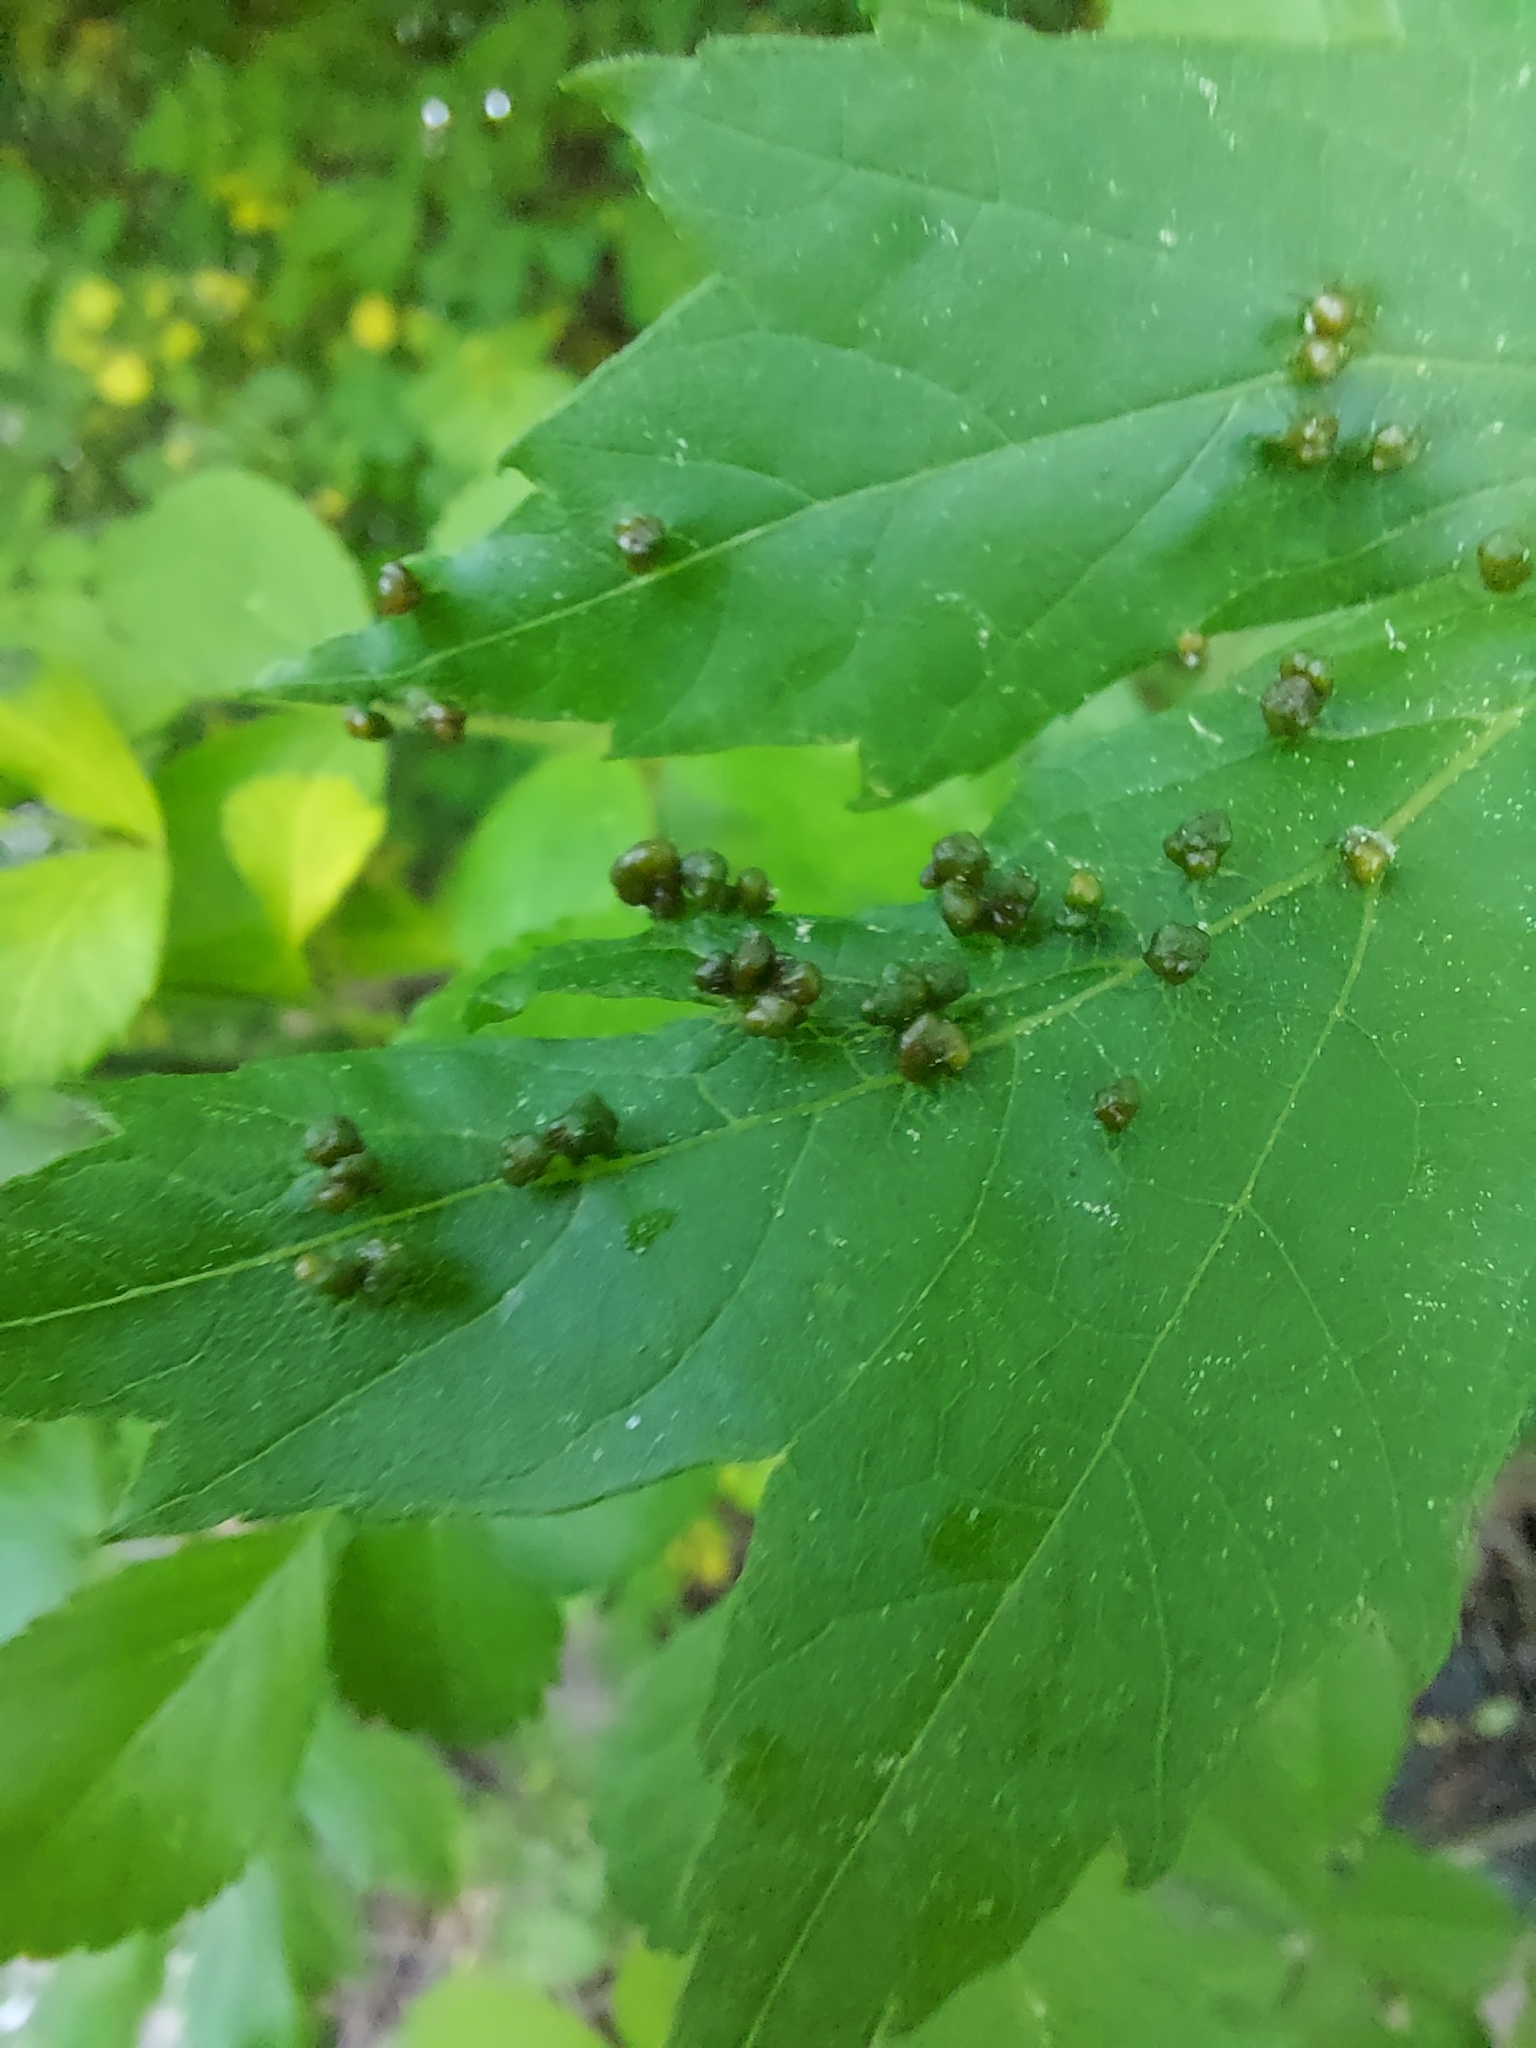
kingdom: Animalia
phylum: Arthropoda
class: Arachnida
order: Trombidiformes
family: Eriophyidae
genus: Vasates
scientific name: Vasates quadripedes
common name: Maple bladder gall mite
